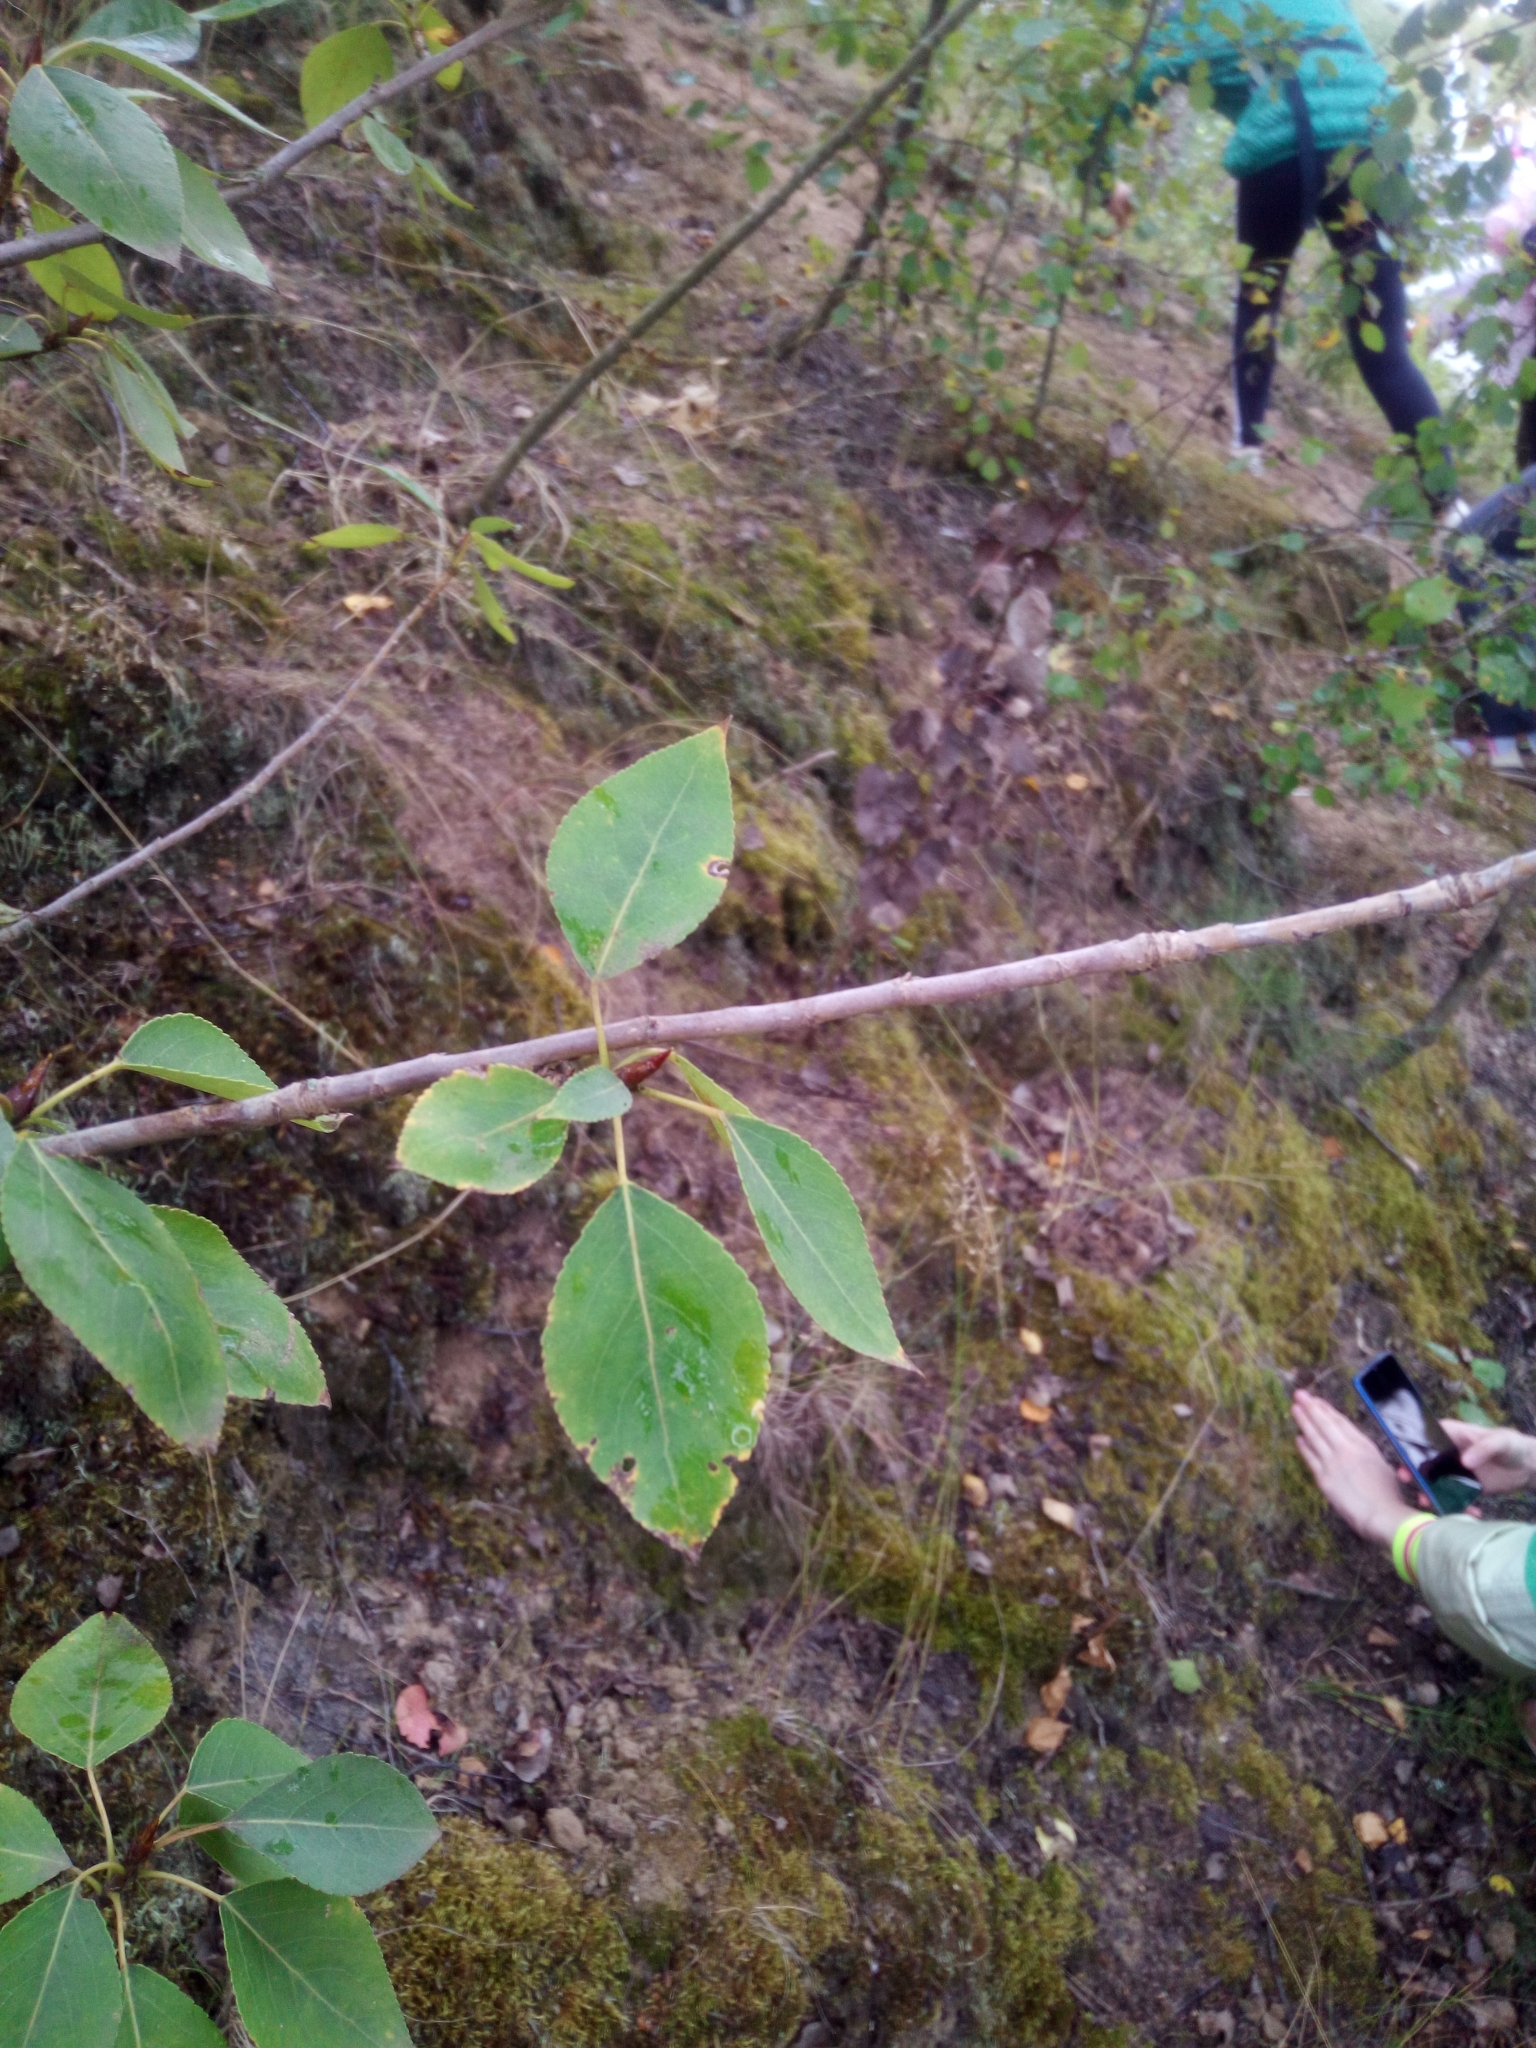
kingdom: Plantae
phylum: Tracheophyta
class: Magnoliopsida
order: Malpighiales
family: Salicaceae
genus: Populus
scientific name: Populus
